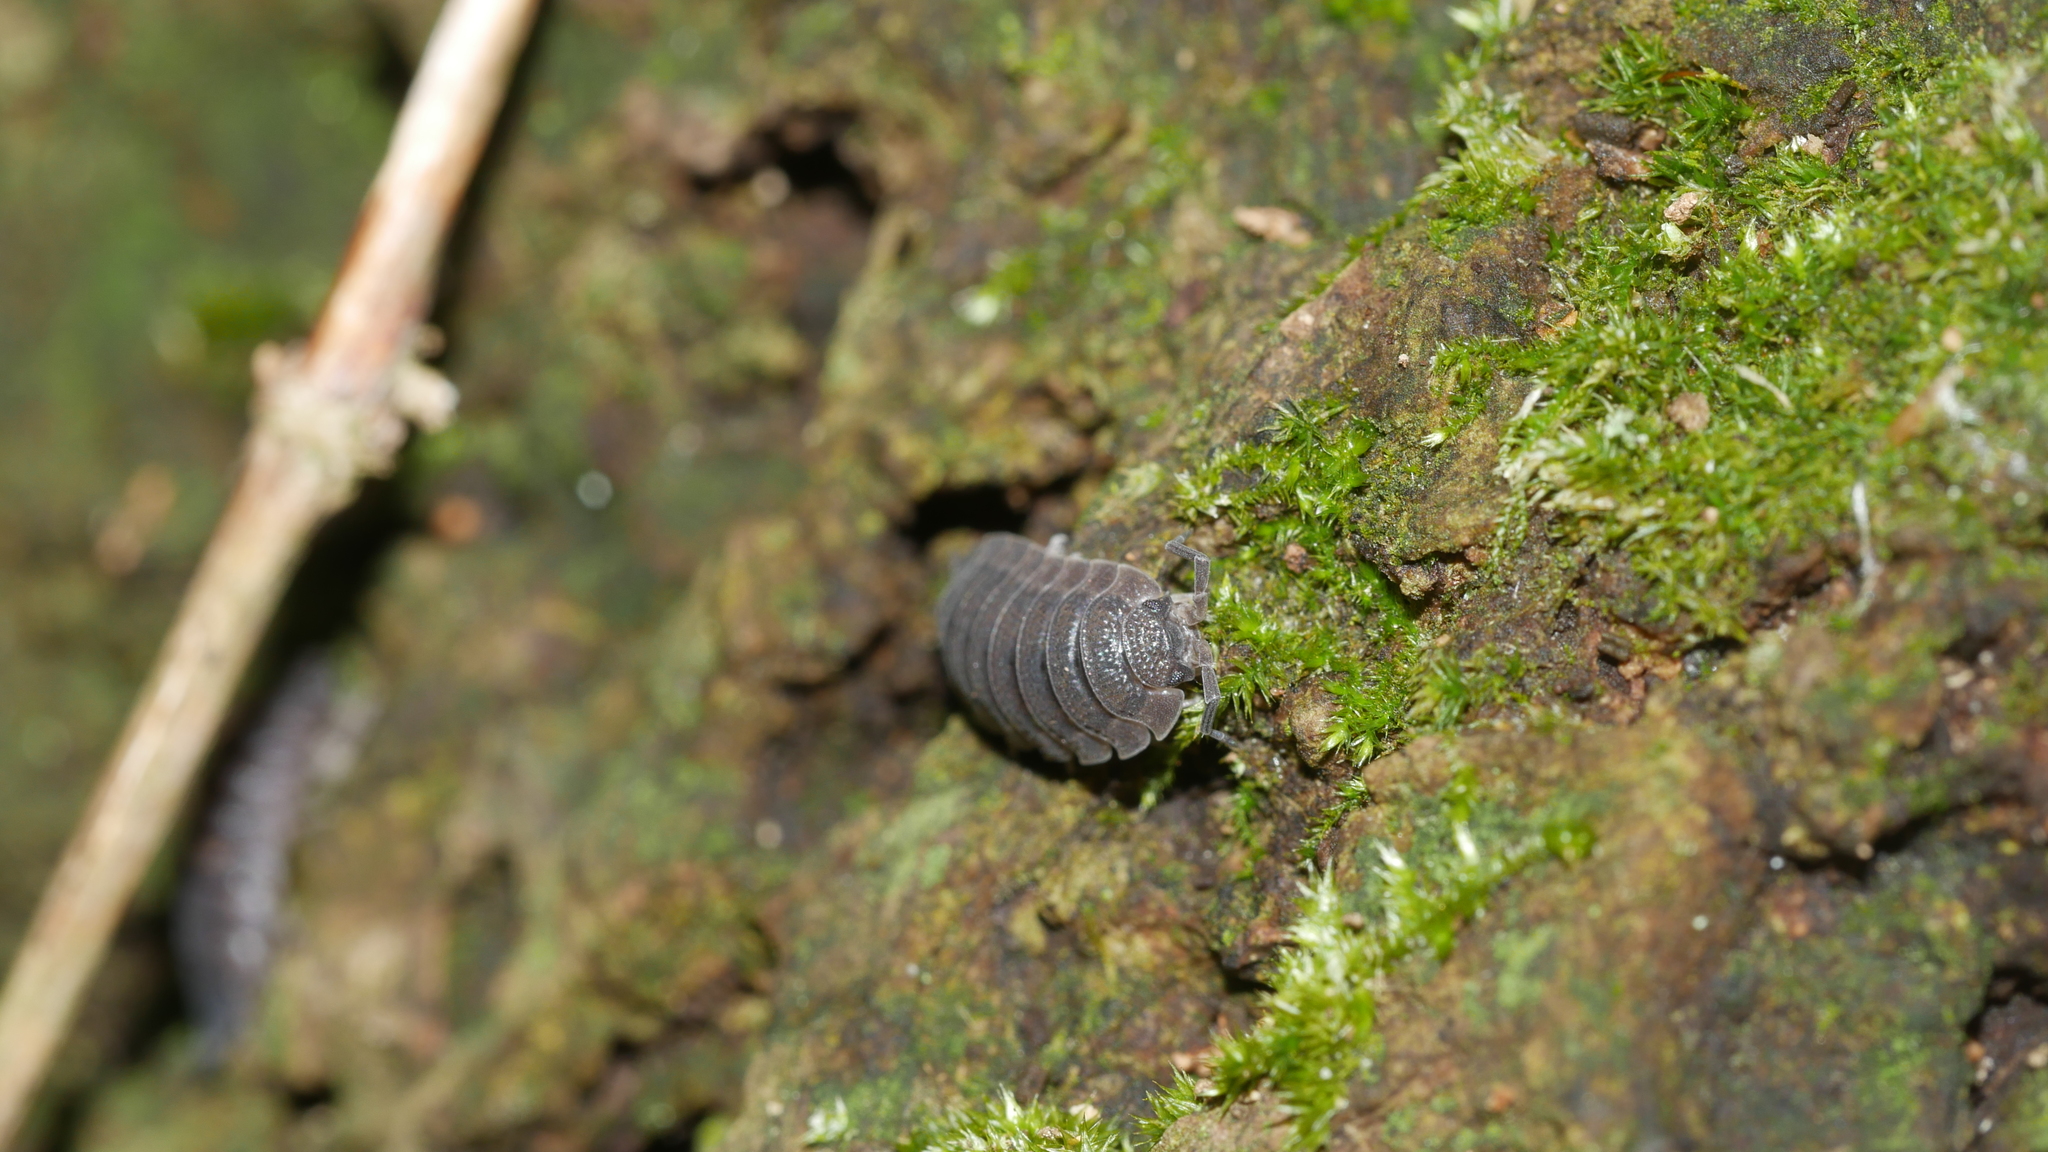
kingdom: Animalia
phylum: Arthropoda
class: Malacostraca
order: Isopoda
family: Porcellionidae
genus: Porcellio
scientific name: Porcellio scaber
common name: Common rough woodlouse
